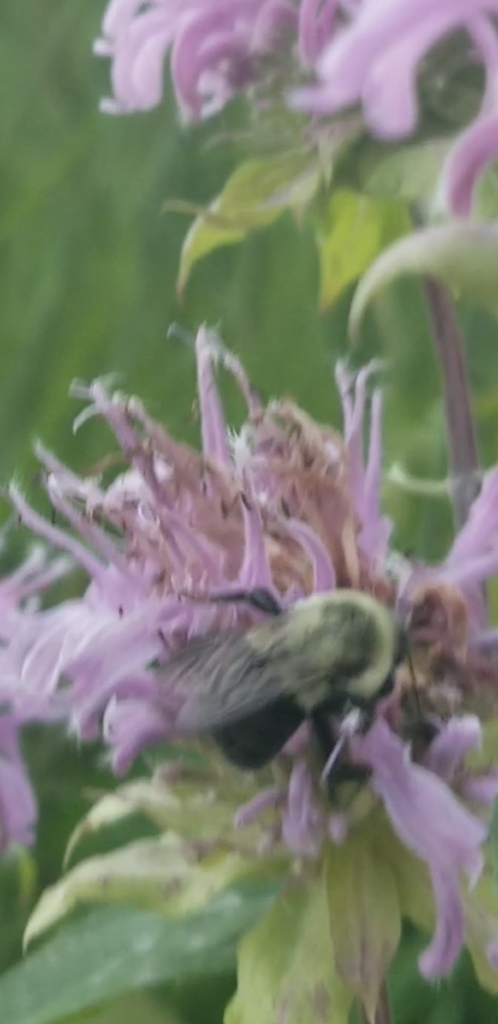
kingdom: Animalia
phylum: Arthropoda
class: Insecta
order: Hymenoptera
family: Apidae
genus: Bombus
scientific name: Bombus impatiens
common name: Common eastern bumble bee
